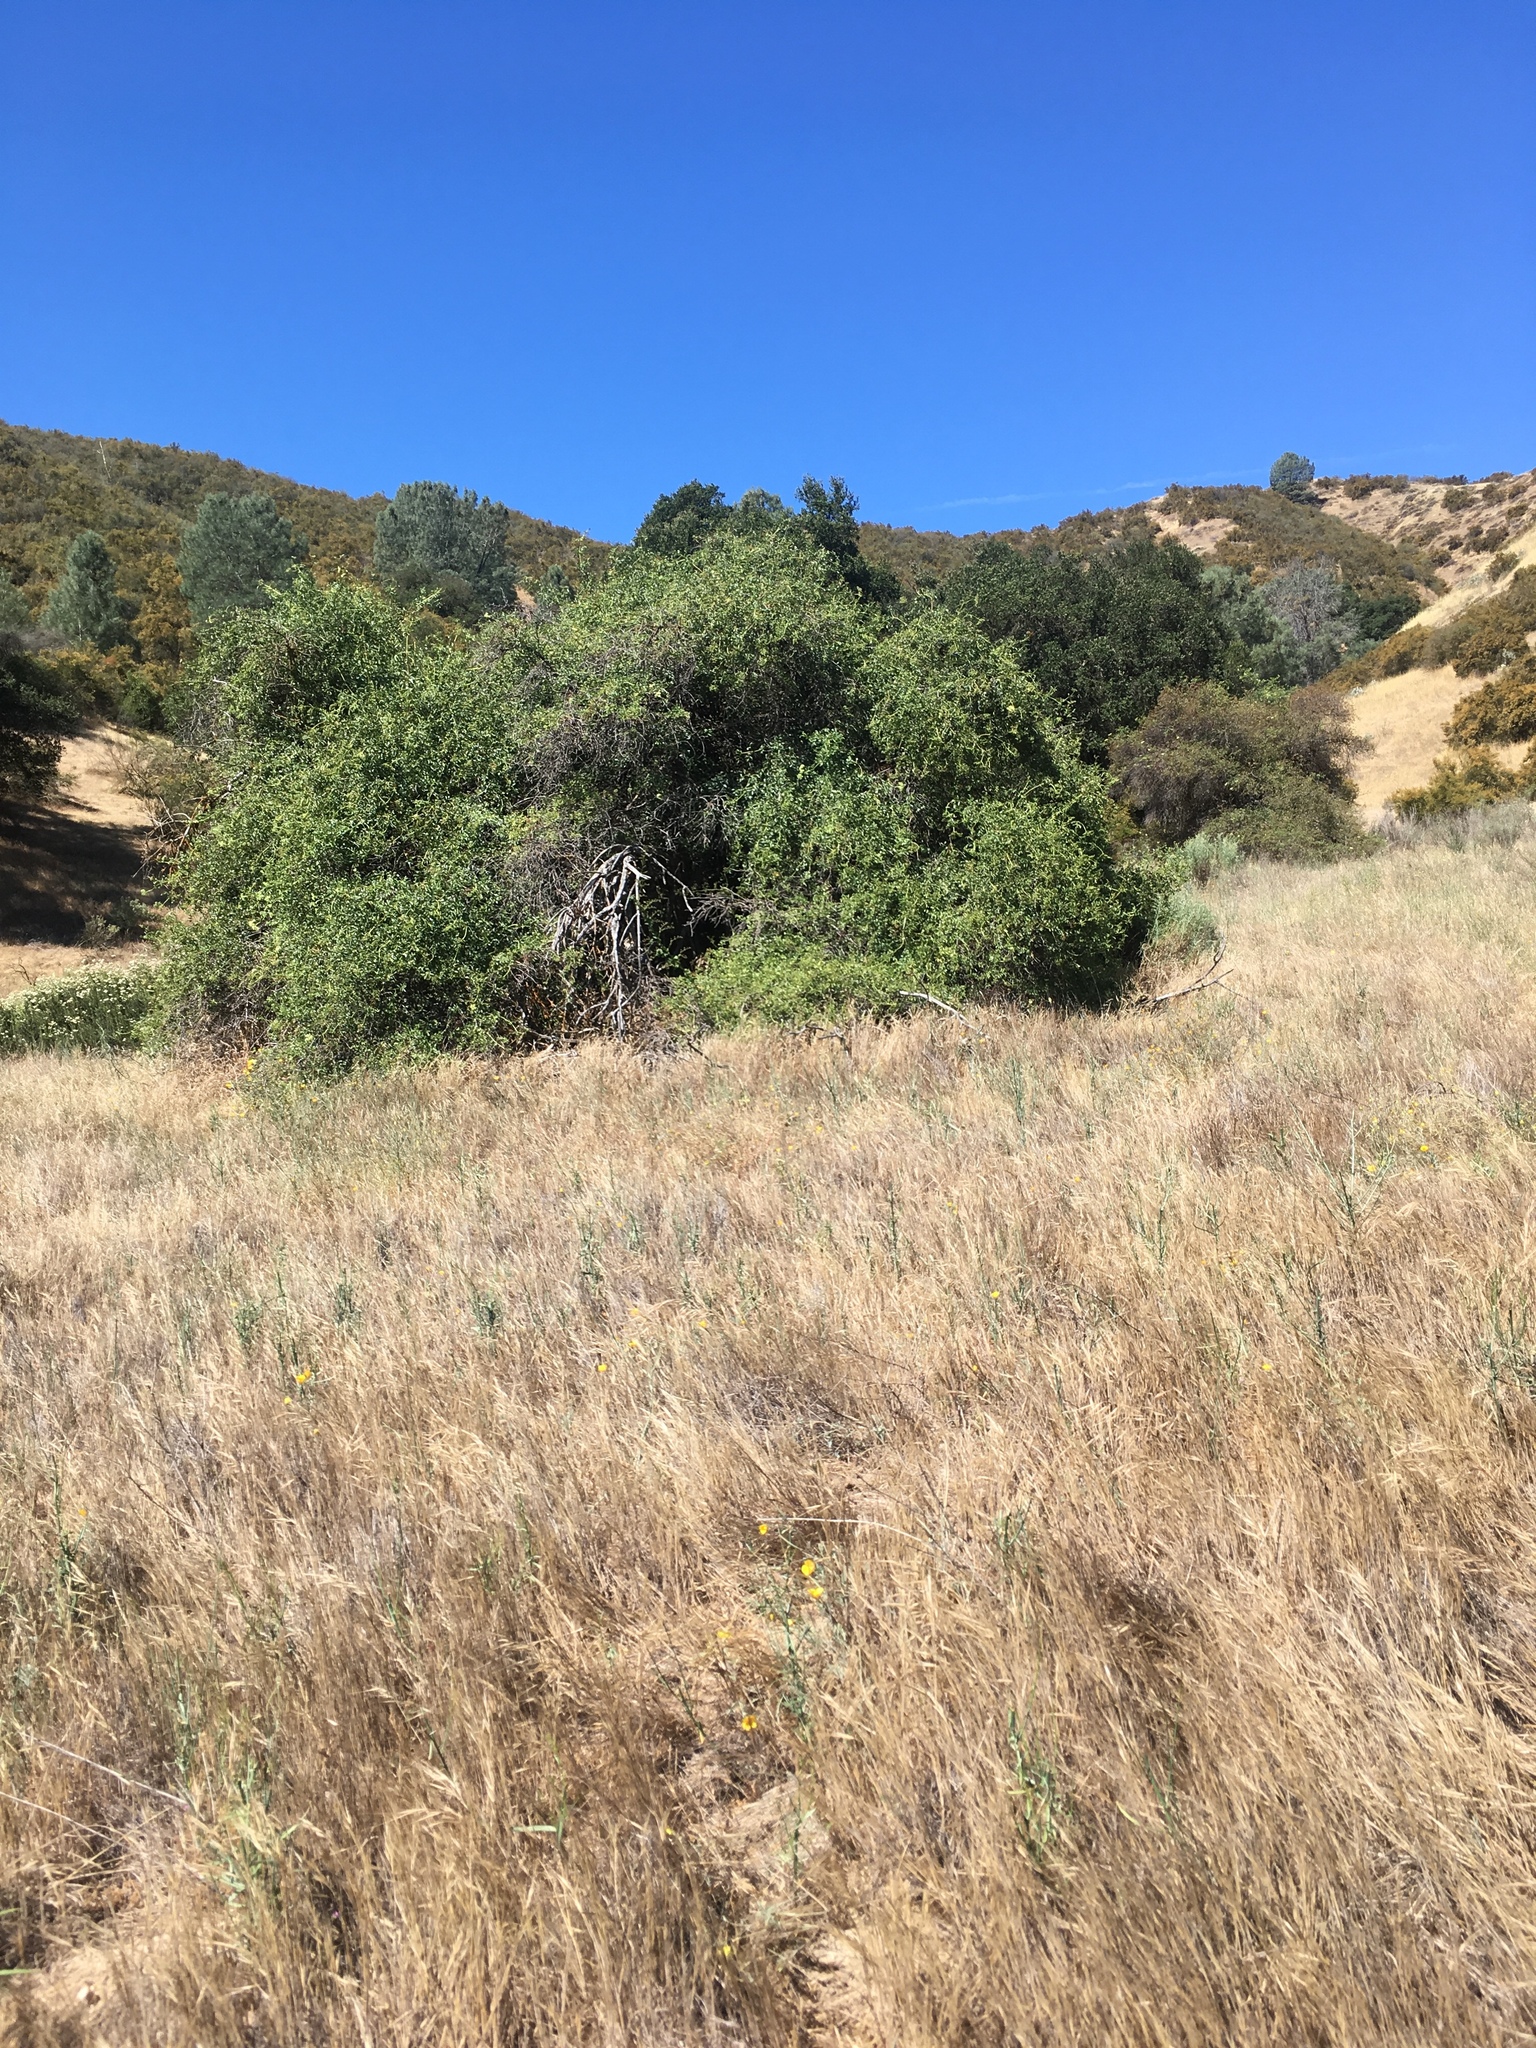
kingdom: Plantae
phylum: Tracheophyta
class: Magnoliopsida
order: Dipsacales
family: Viburnaceae
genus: Sambucus
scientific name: Sambucus cerulea
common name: Blue elder
